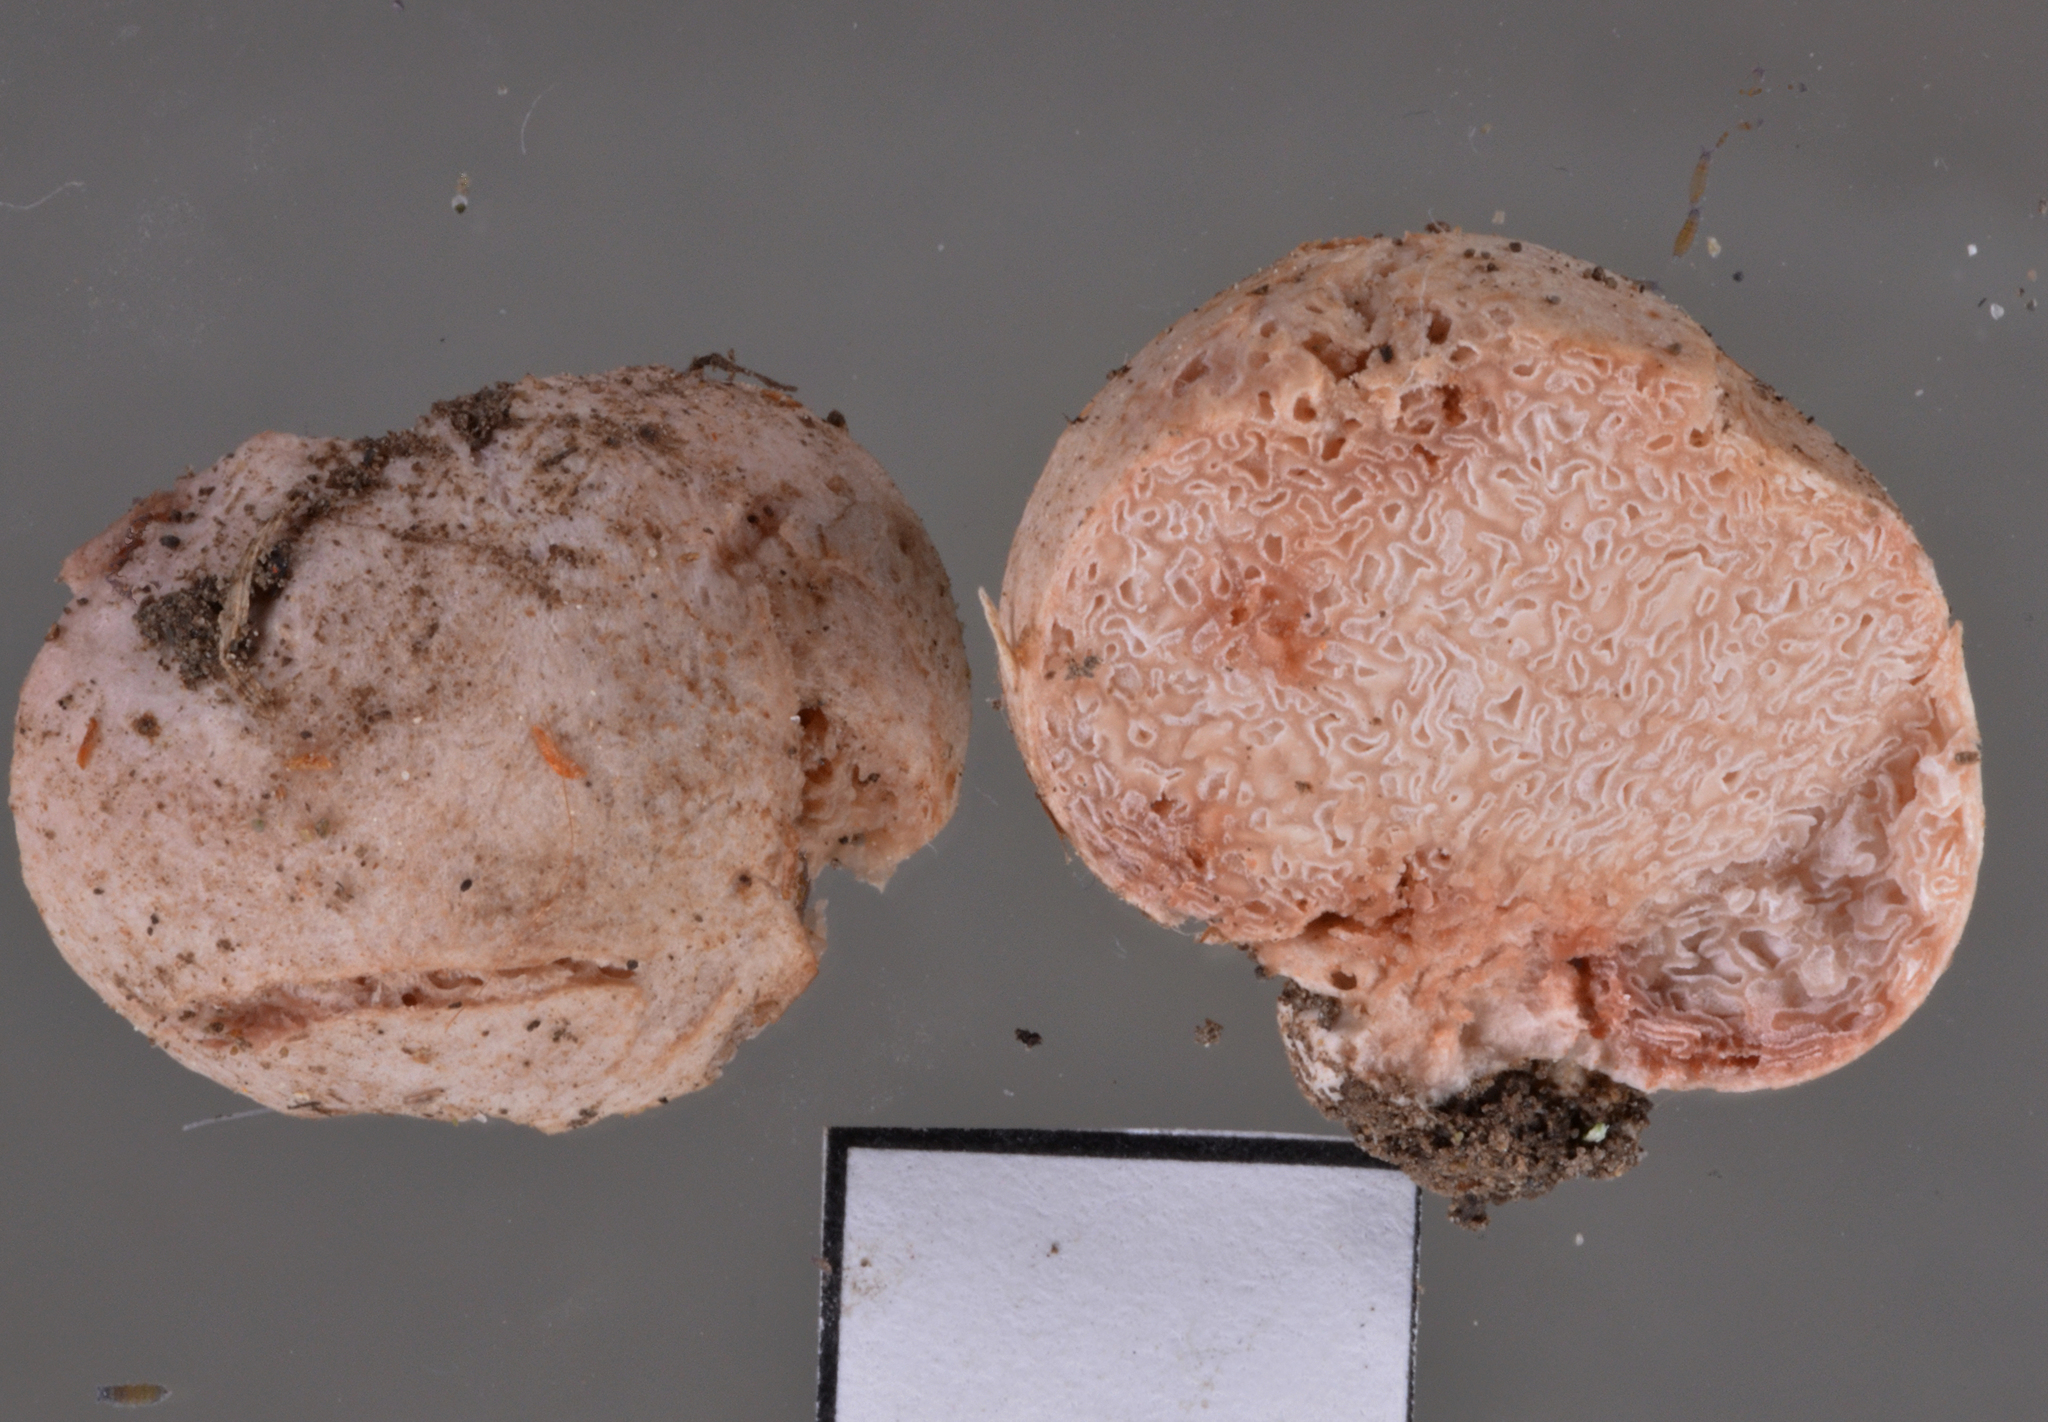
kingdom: Fungi
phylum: Basidiomycota
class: Agaricomycetes
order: Agaricales
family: Hydnangiaceae
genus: Hydnangium
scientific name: Hydnangium kanuka
